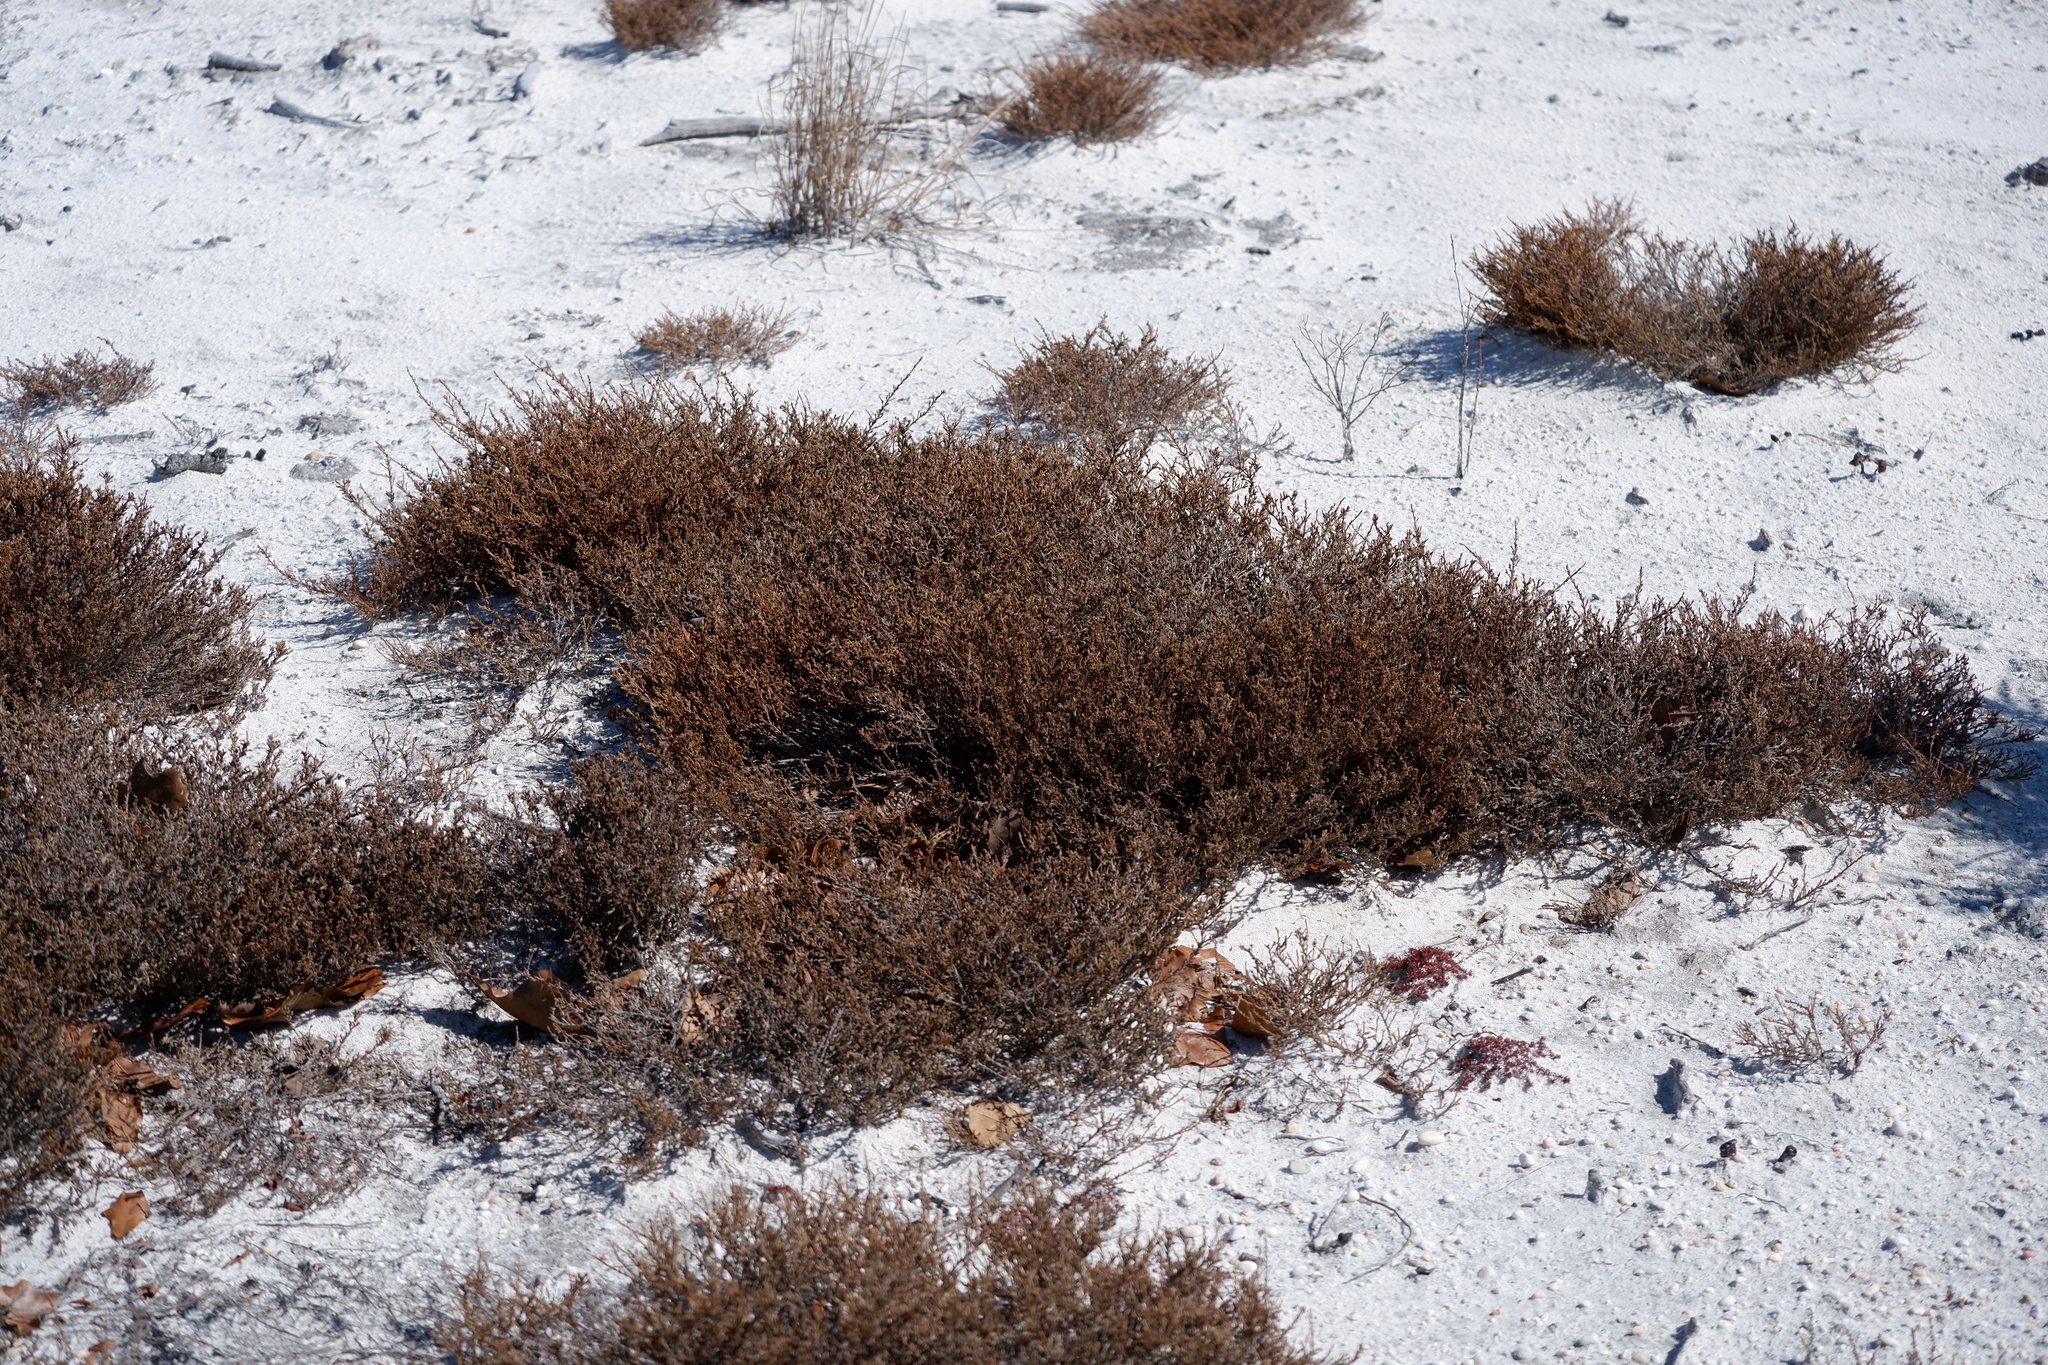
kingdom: Plantae
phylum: Tracheophyta
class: Magnoliopsida
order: Malvales
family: Cistaceae
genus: Hudsonia
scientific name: Hudsonia ericoides
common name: Golden-heather
